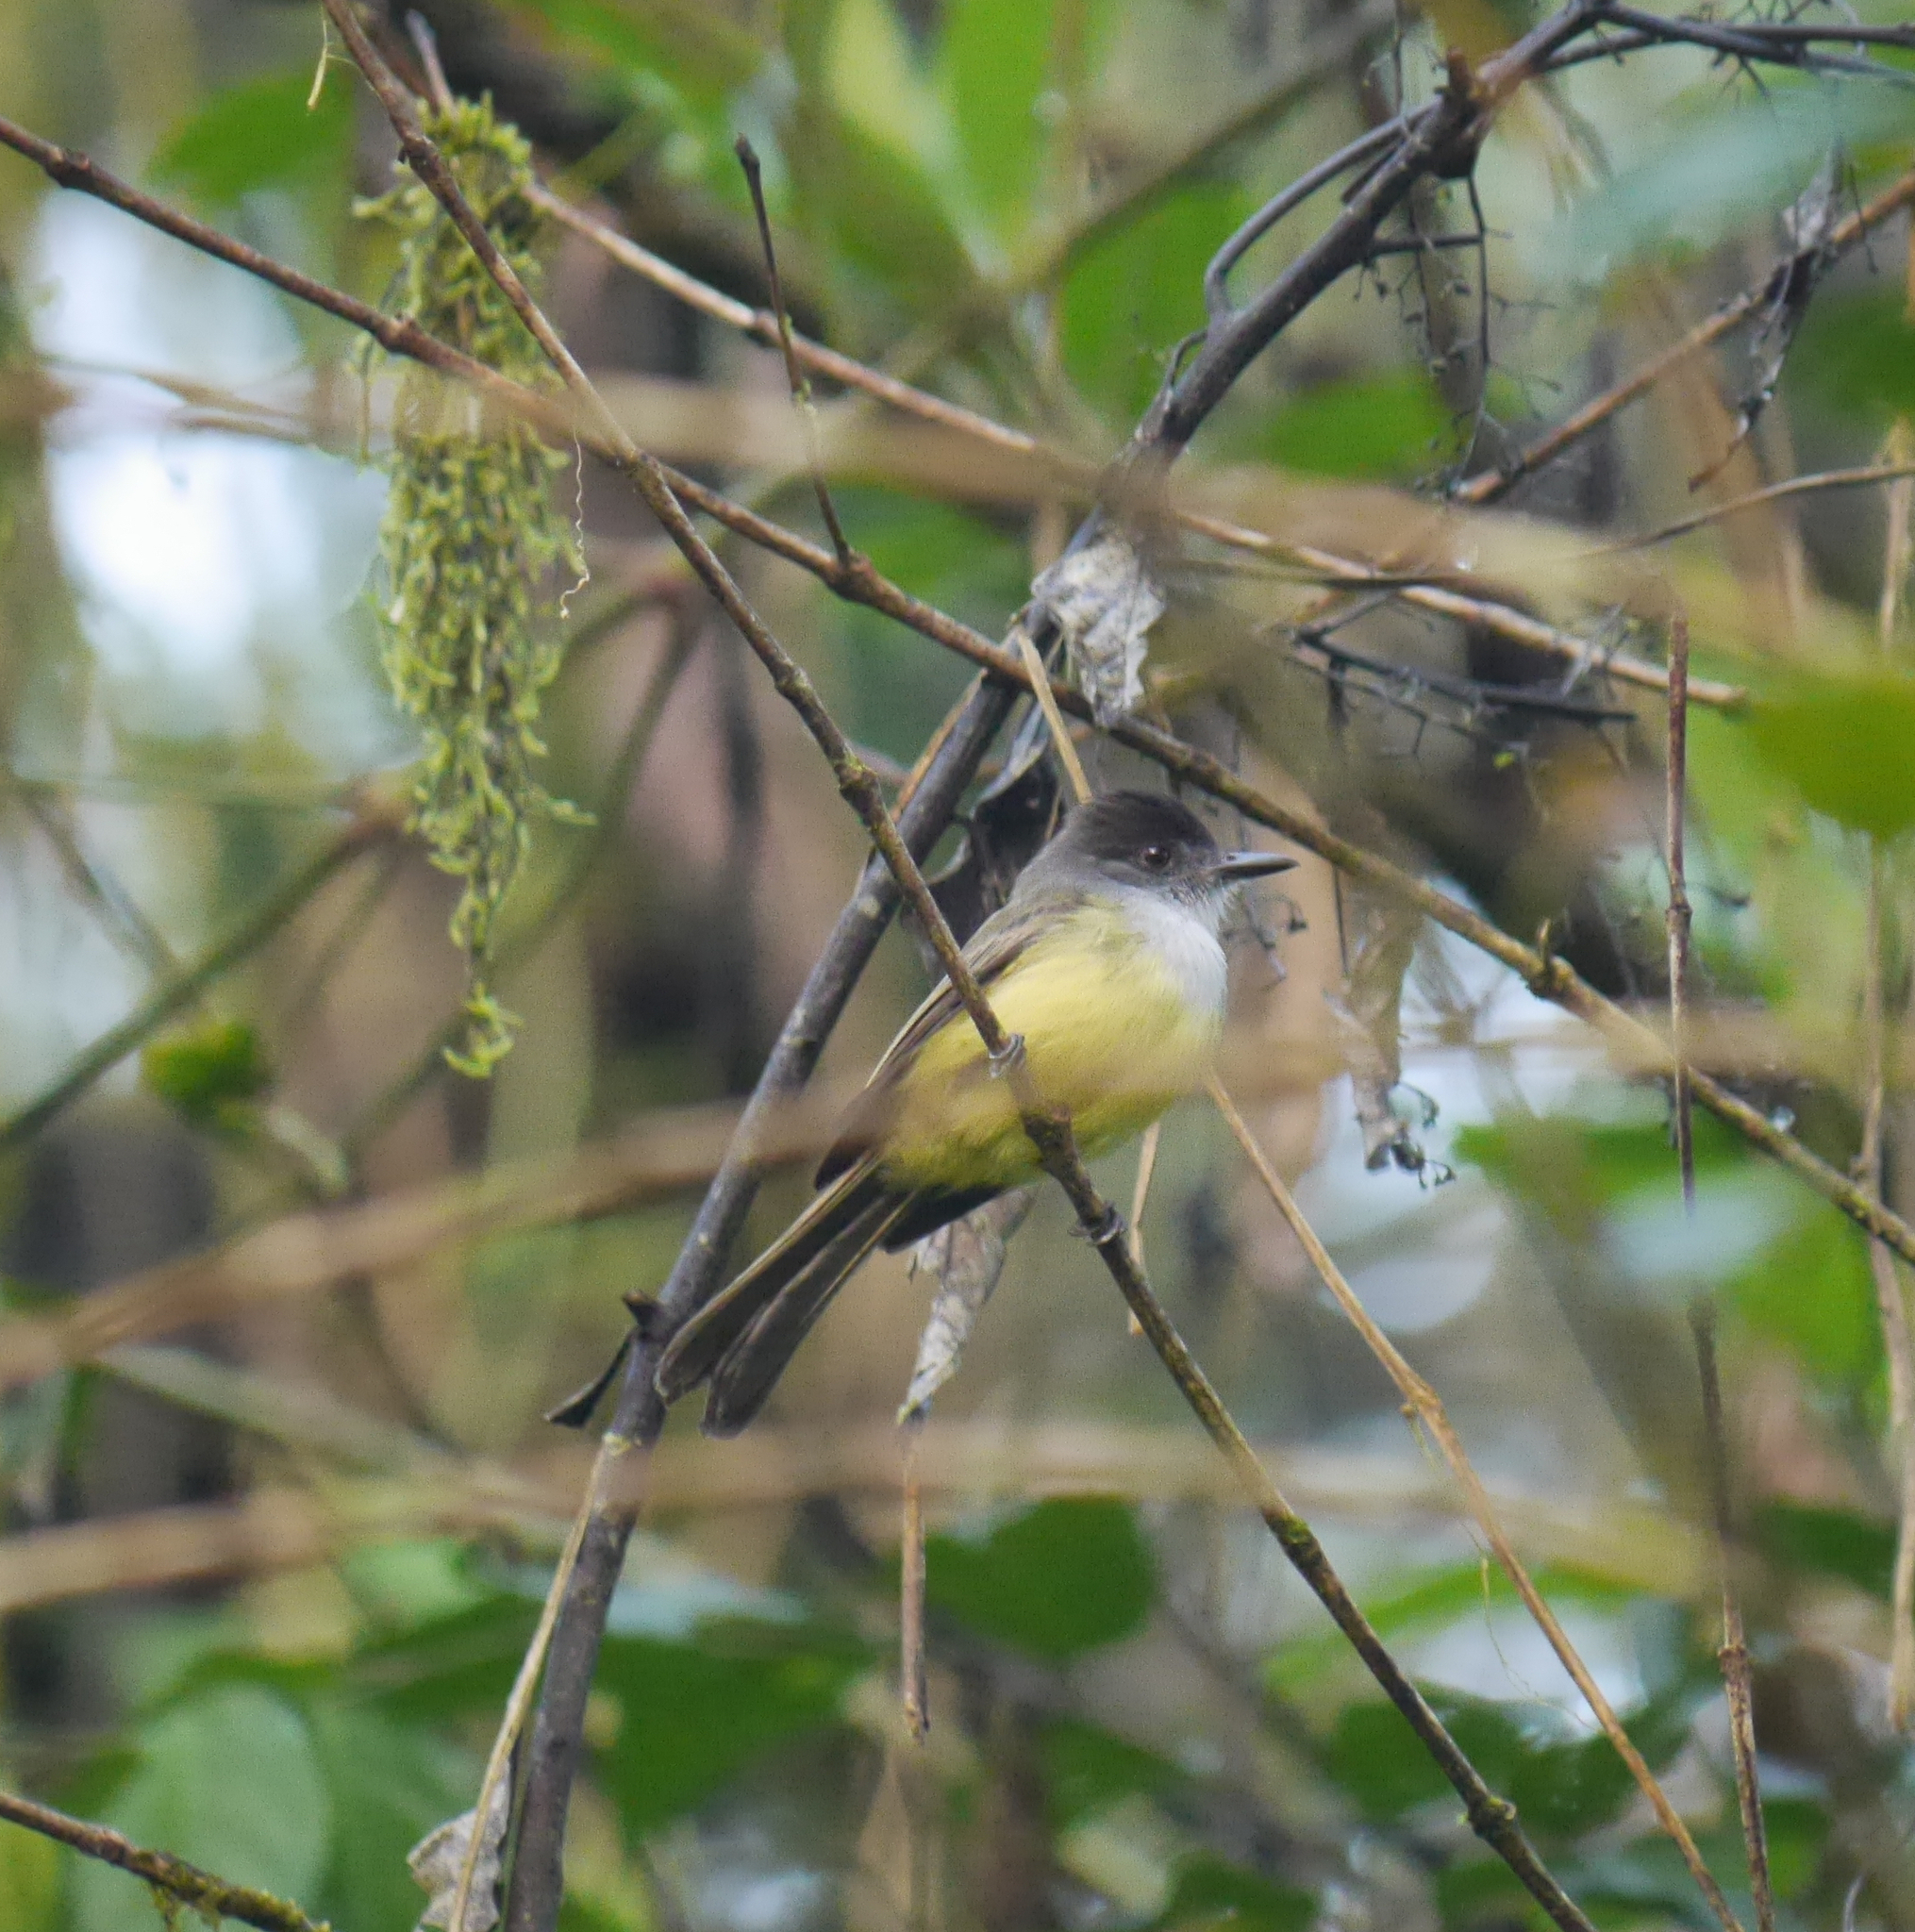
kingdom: Animalia
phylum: Chordata
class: Aves
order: Passeriformes
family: Tyrannidae
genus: Myiarchus
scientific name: Myiarchus tuberculifer
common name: Dusky-capped flycatcher
